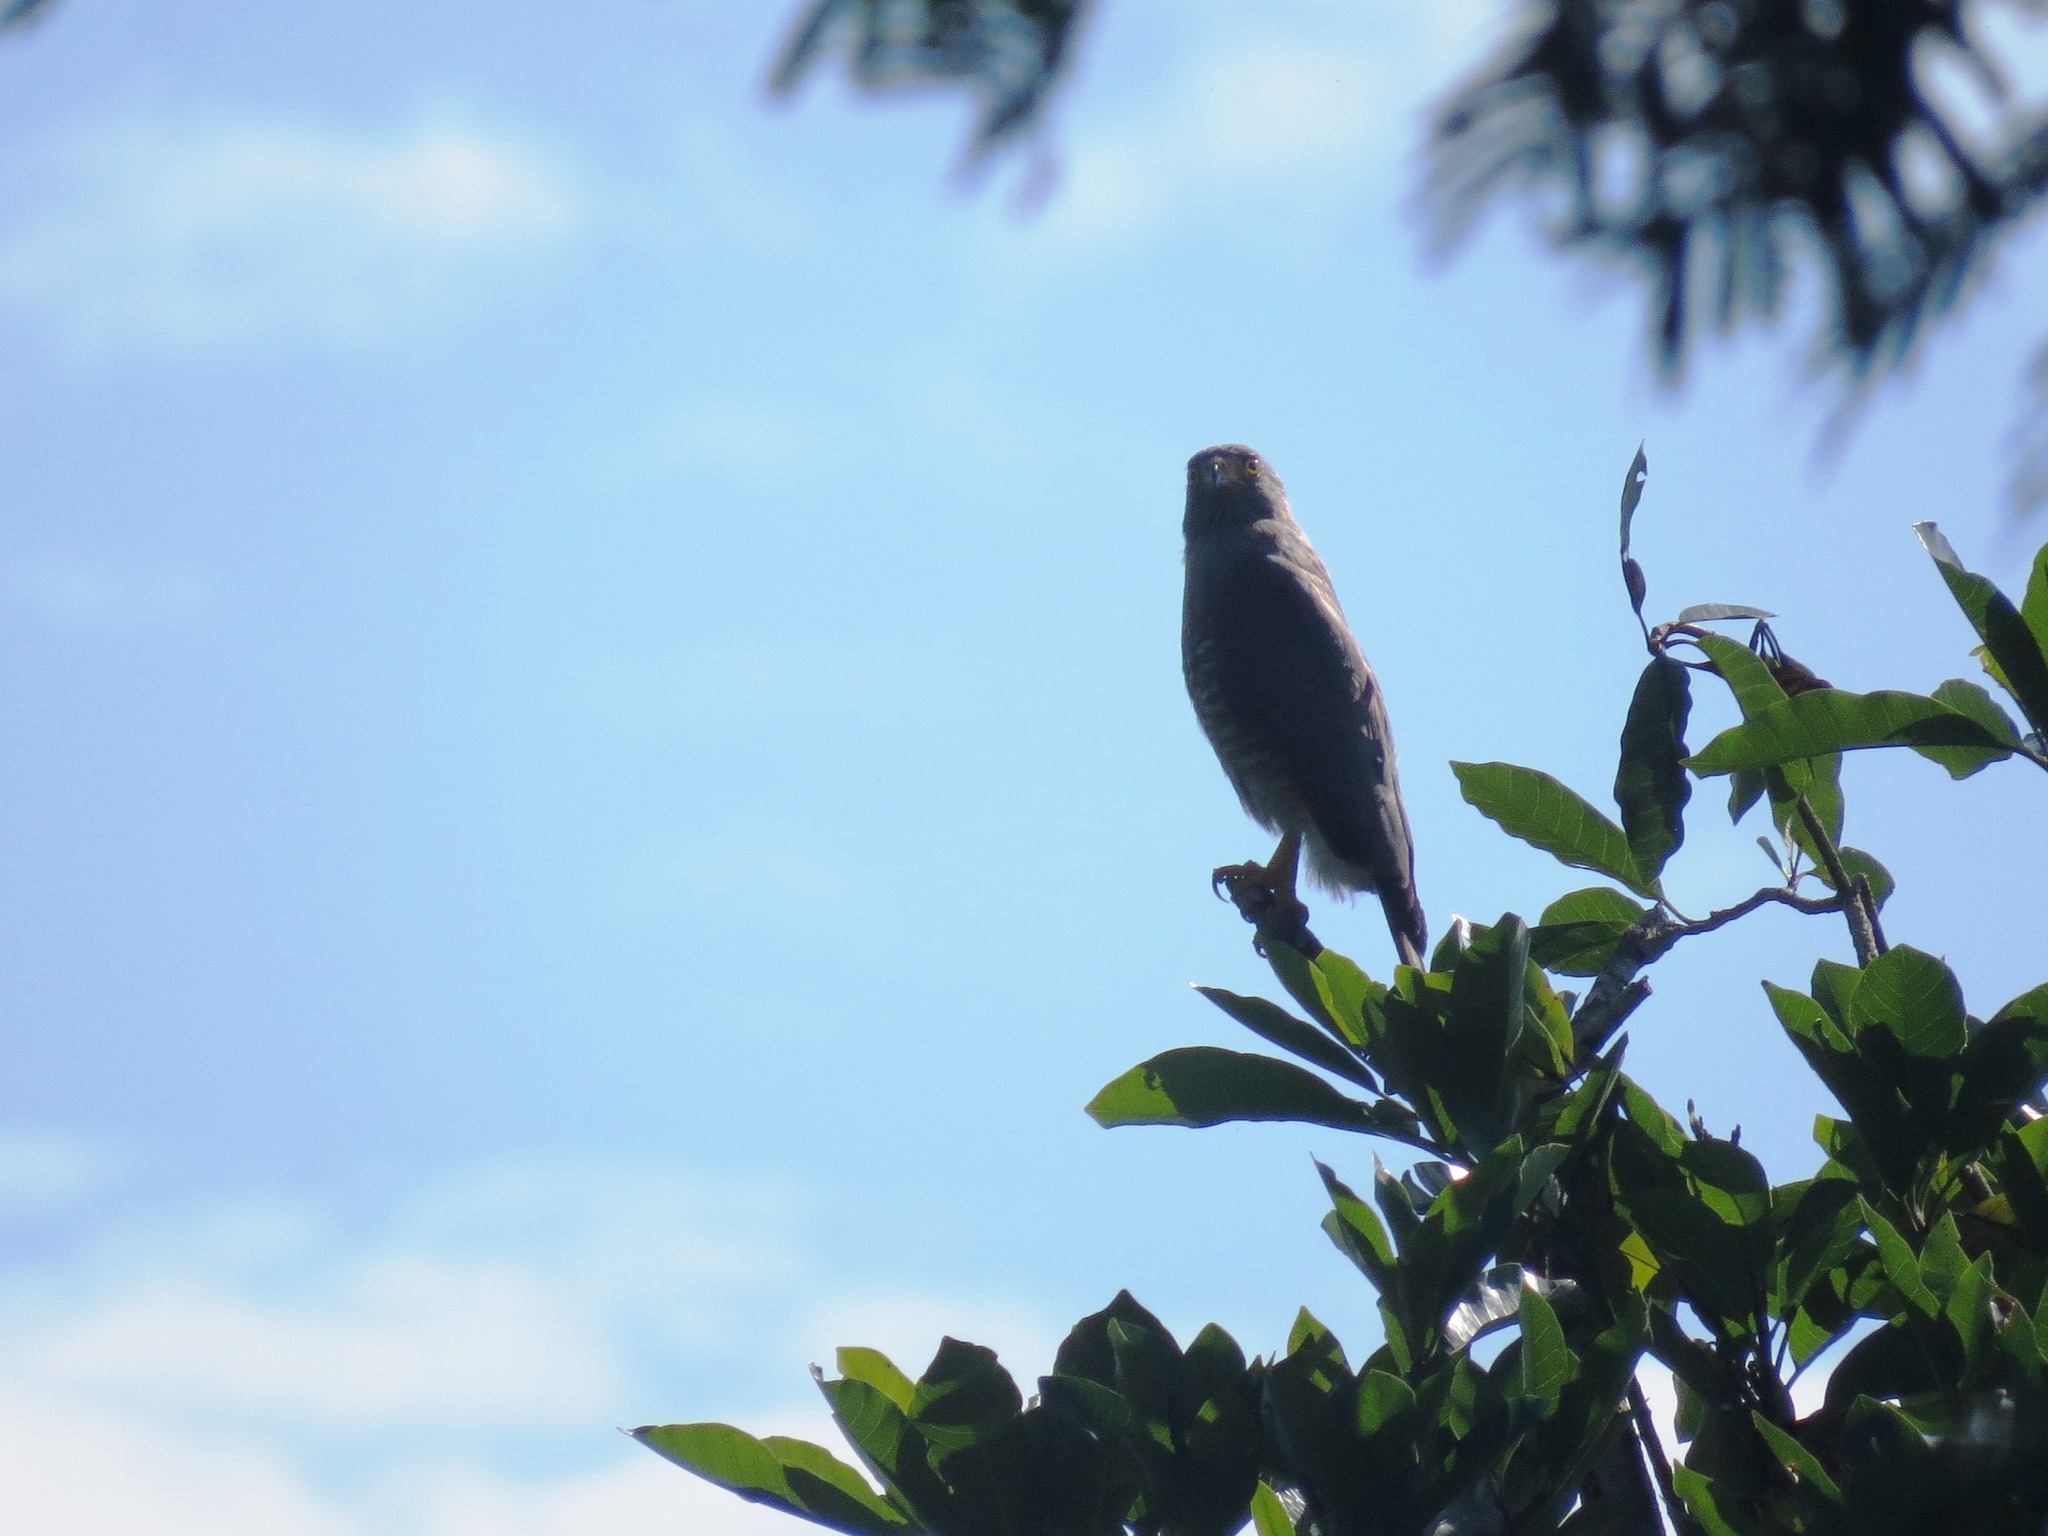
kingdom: Animalia
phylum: Chordata
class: Aves
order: Accipitriformes
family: Accipitridae
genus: Rupornis
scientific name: Rupornis magnirostris
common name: Roadside hawk
